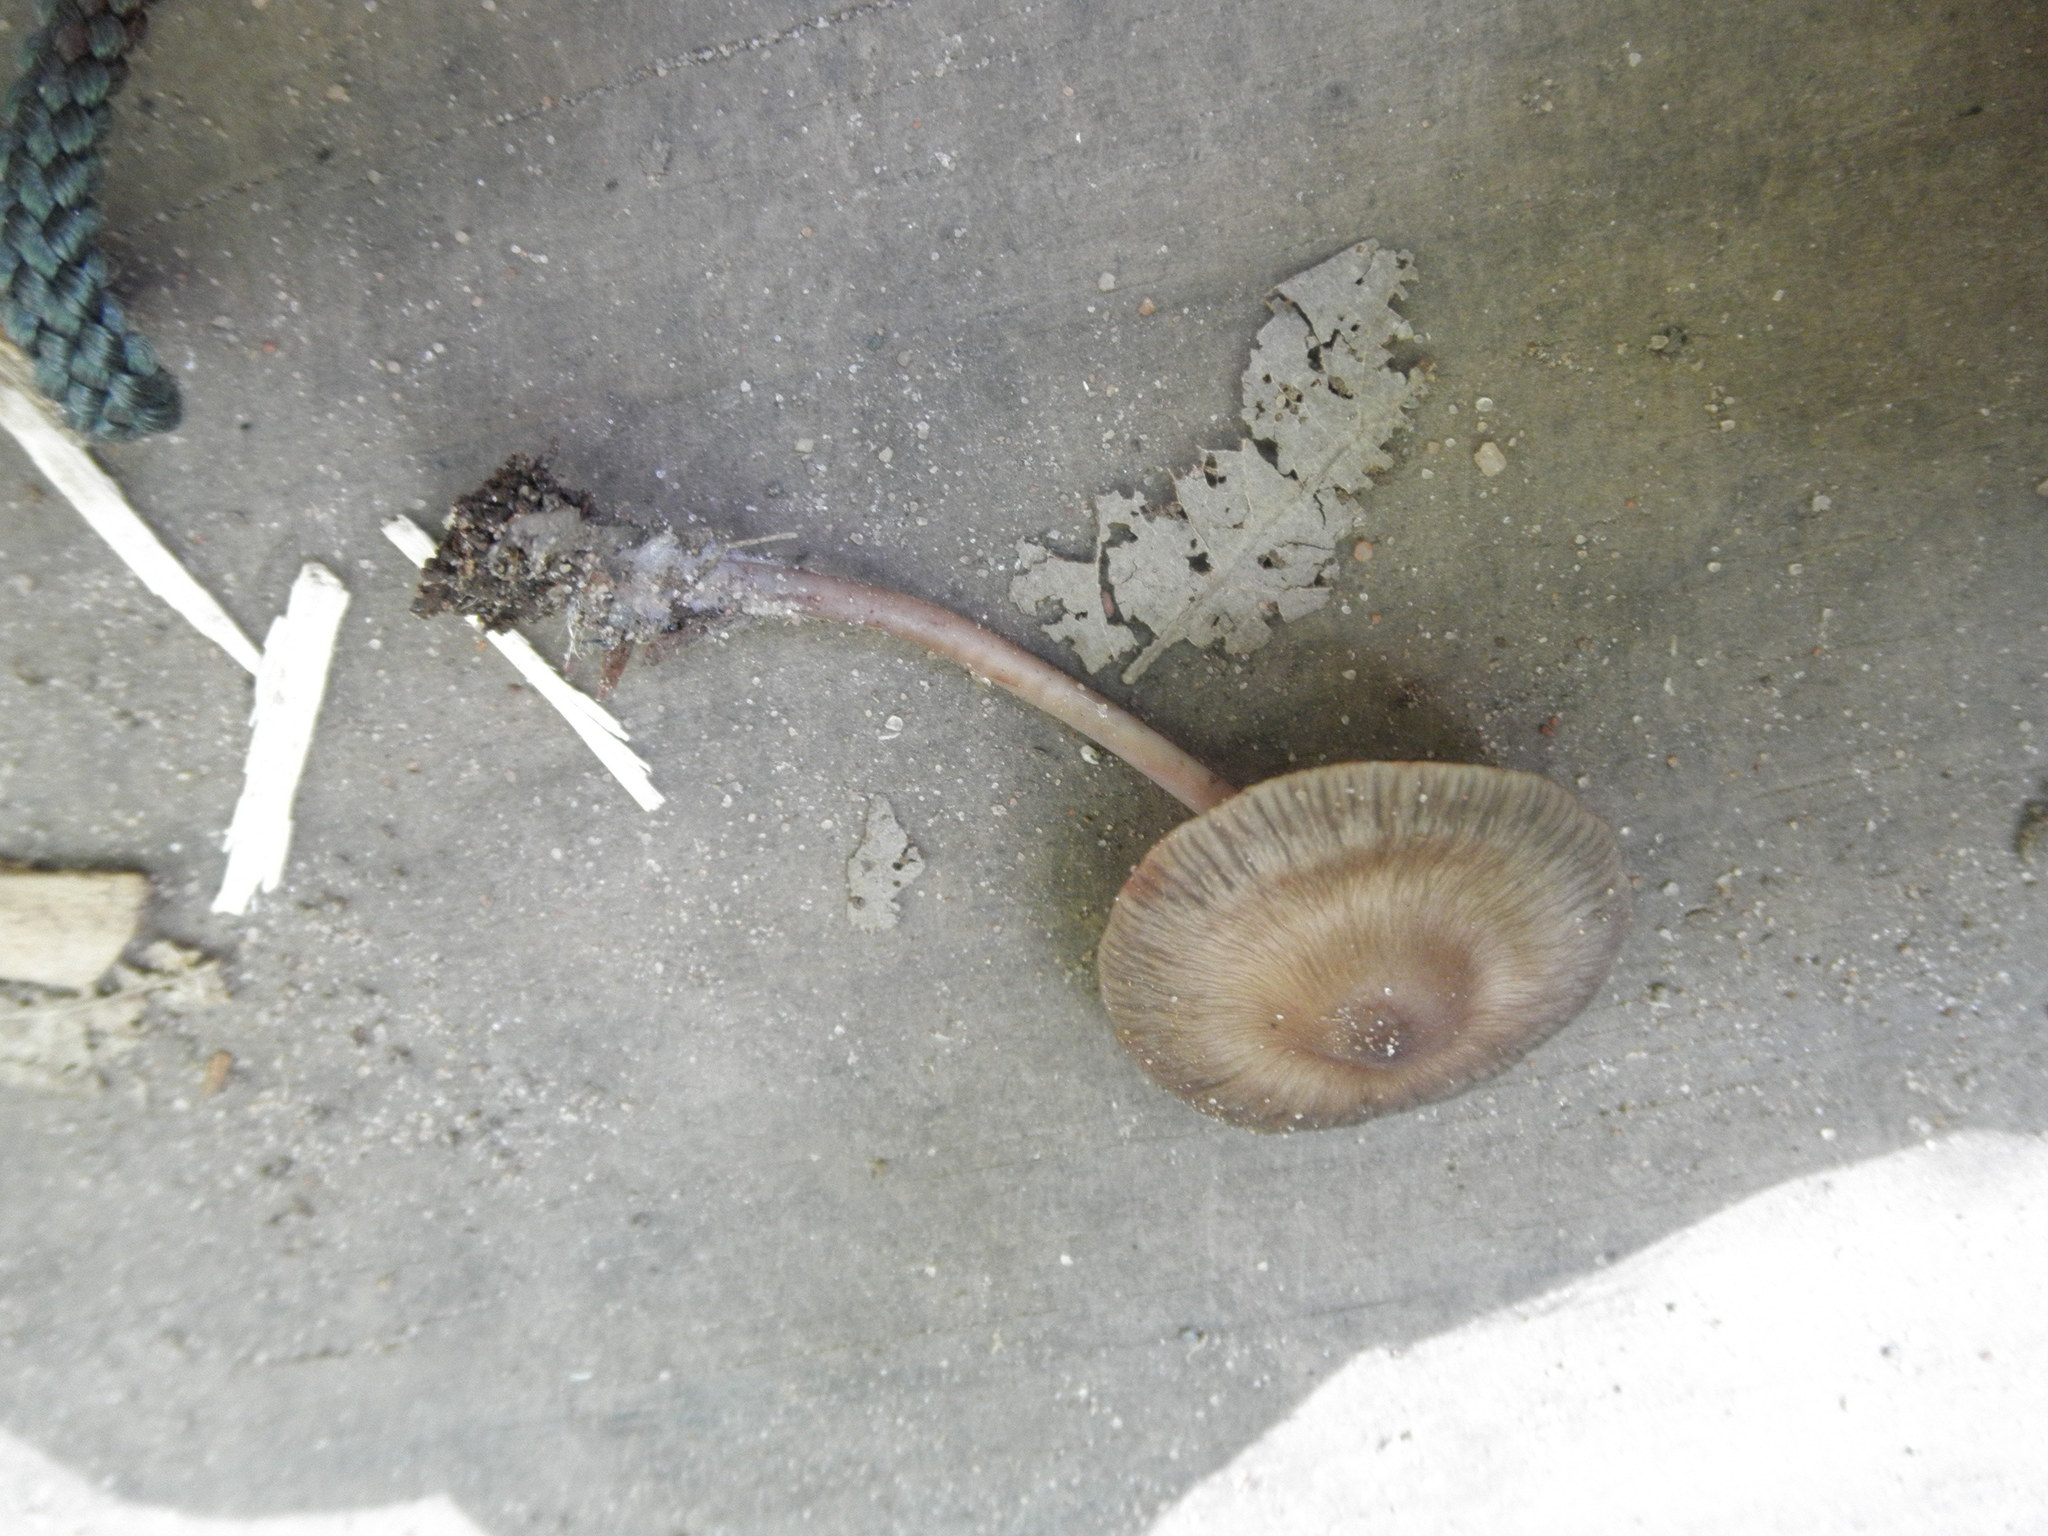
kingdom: Fungi
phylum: Basidiomycota
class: Agaricomycetes
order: Agaricales
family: Mycenaceae
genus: Mycena
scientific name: Mycena alcalina
